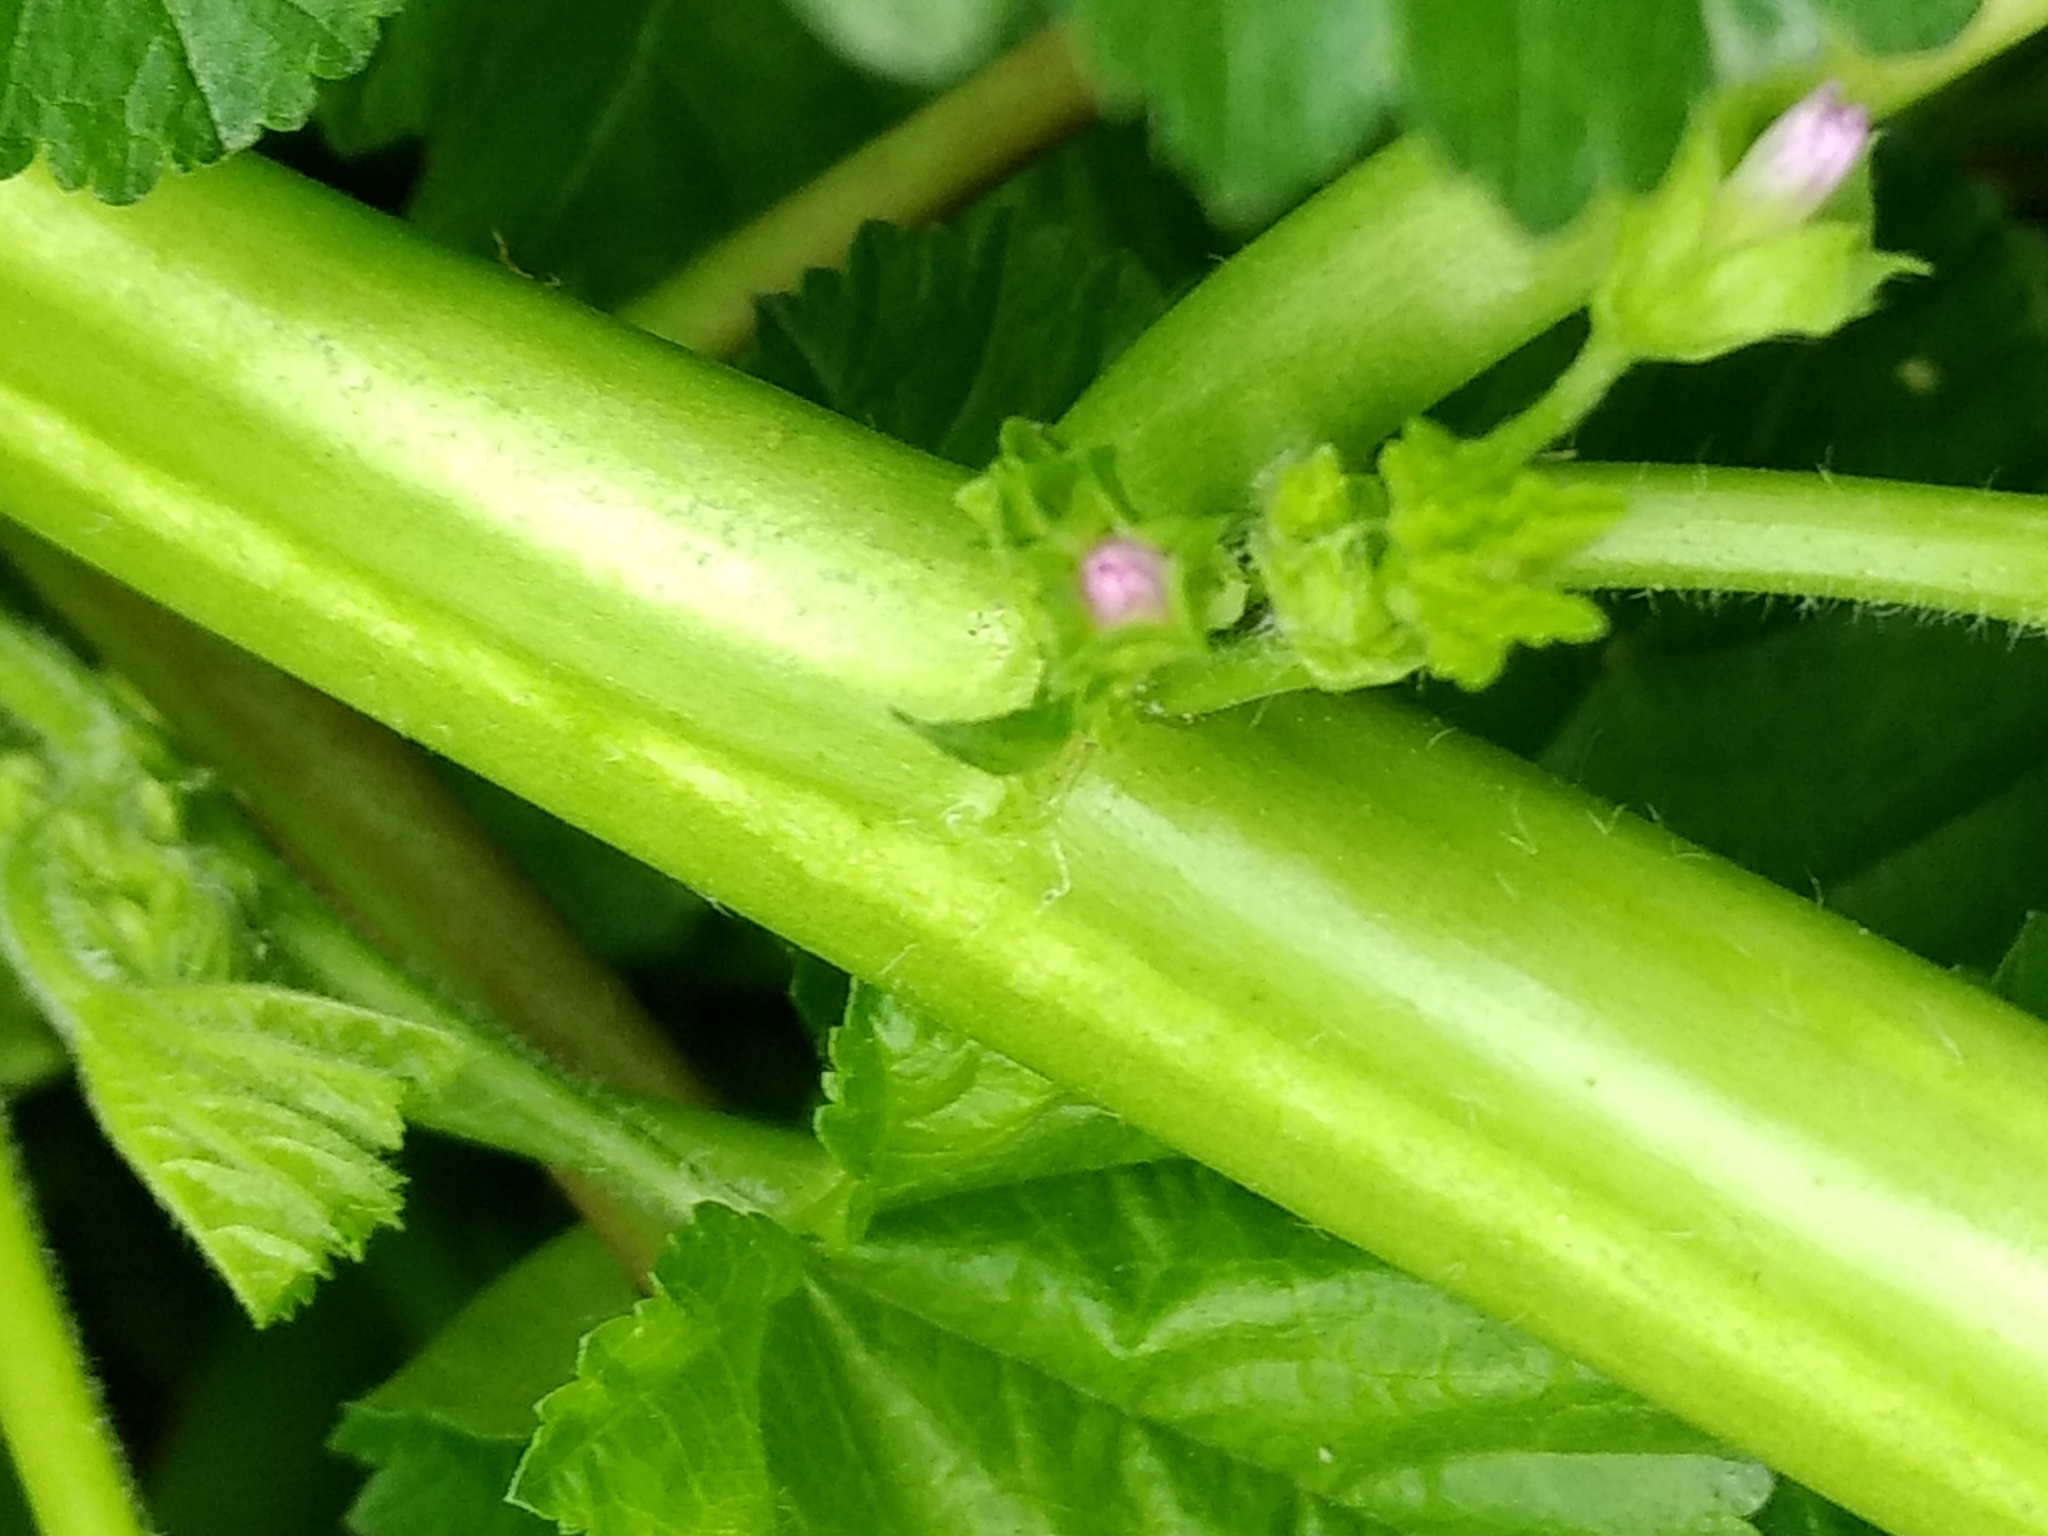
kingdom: Plantae
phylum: Tracheophyta
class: Magnoliopsida
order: Malvales
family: Malvaceae
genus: Malva
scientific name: Malva parviflora
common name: Least mallow
